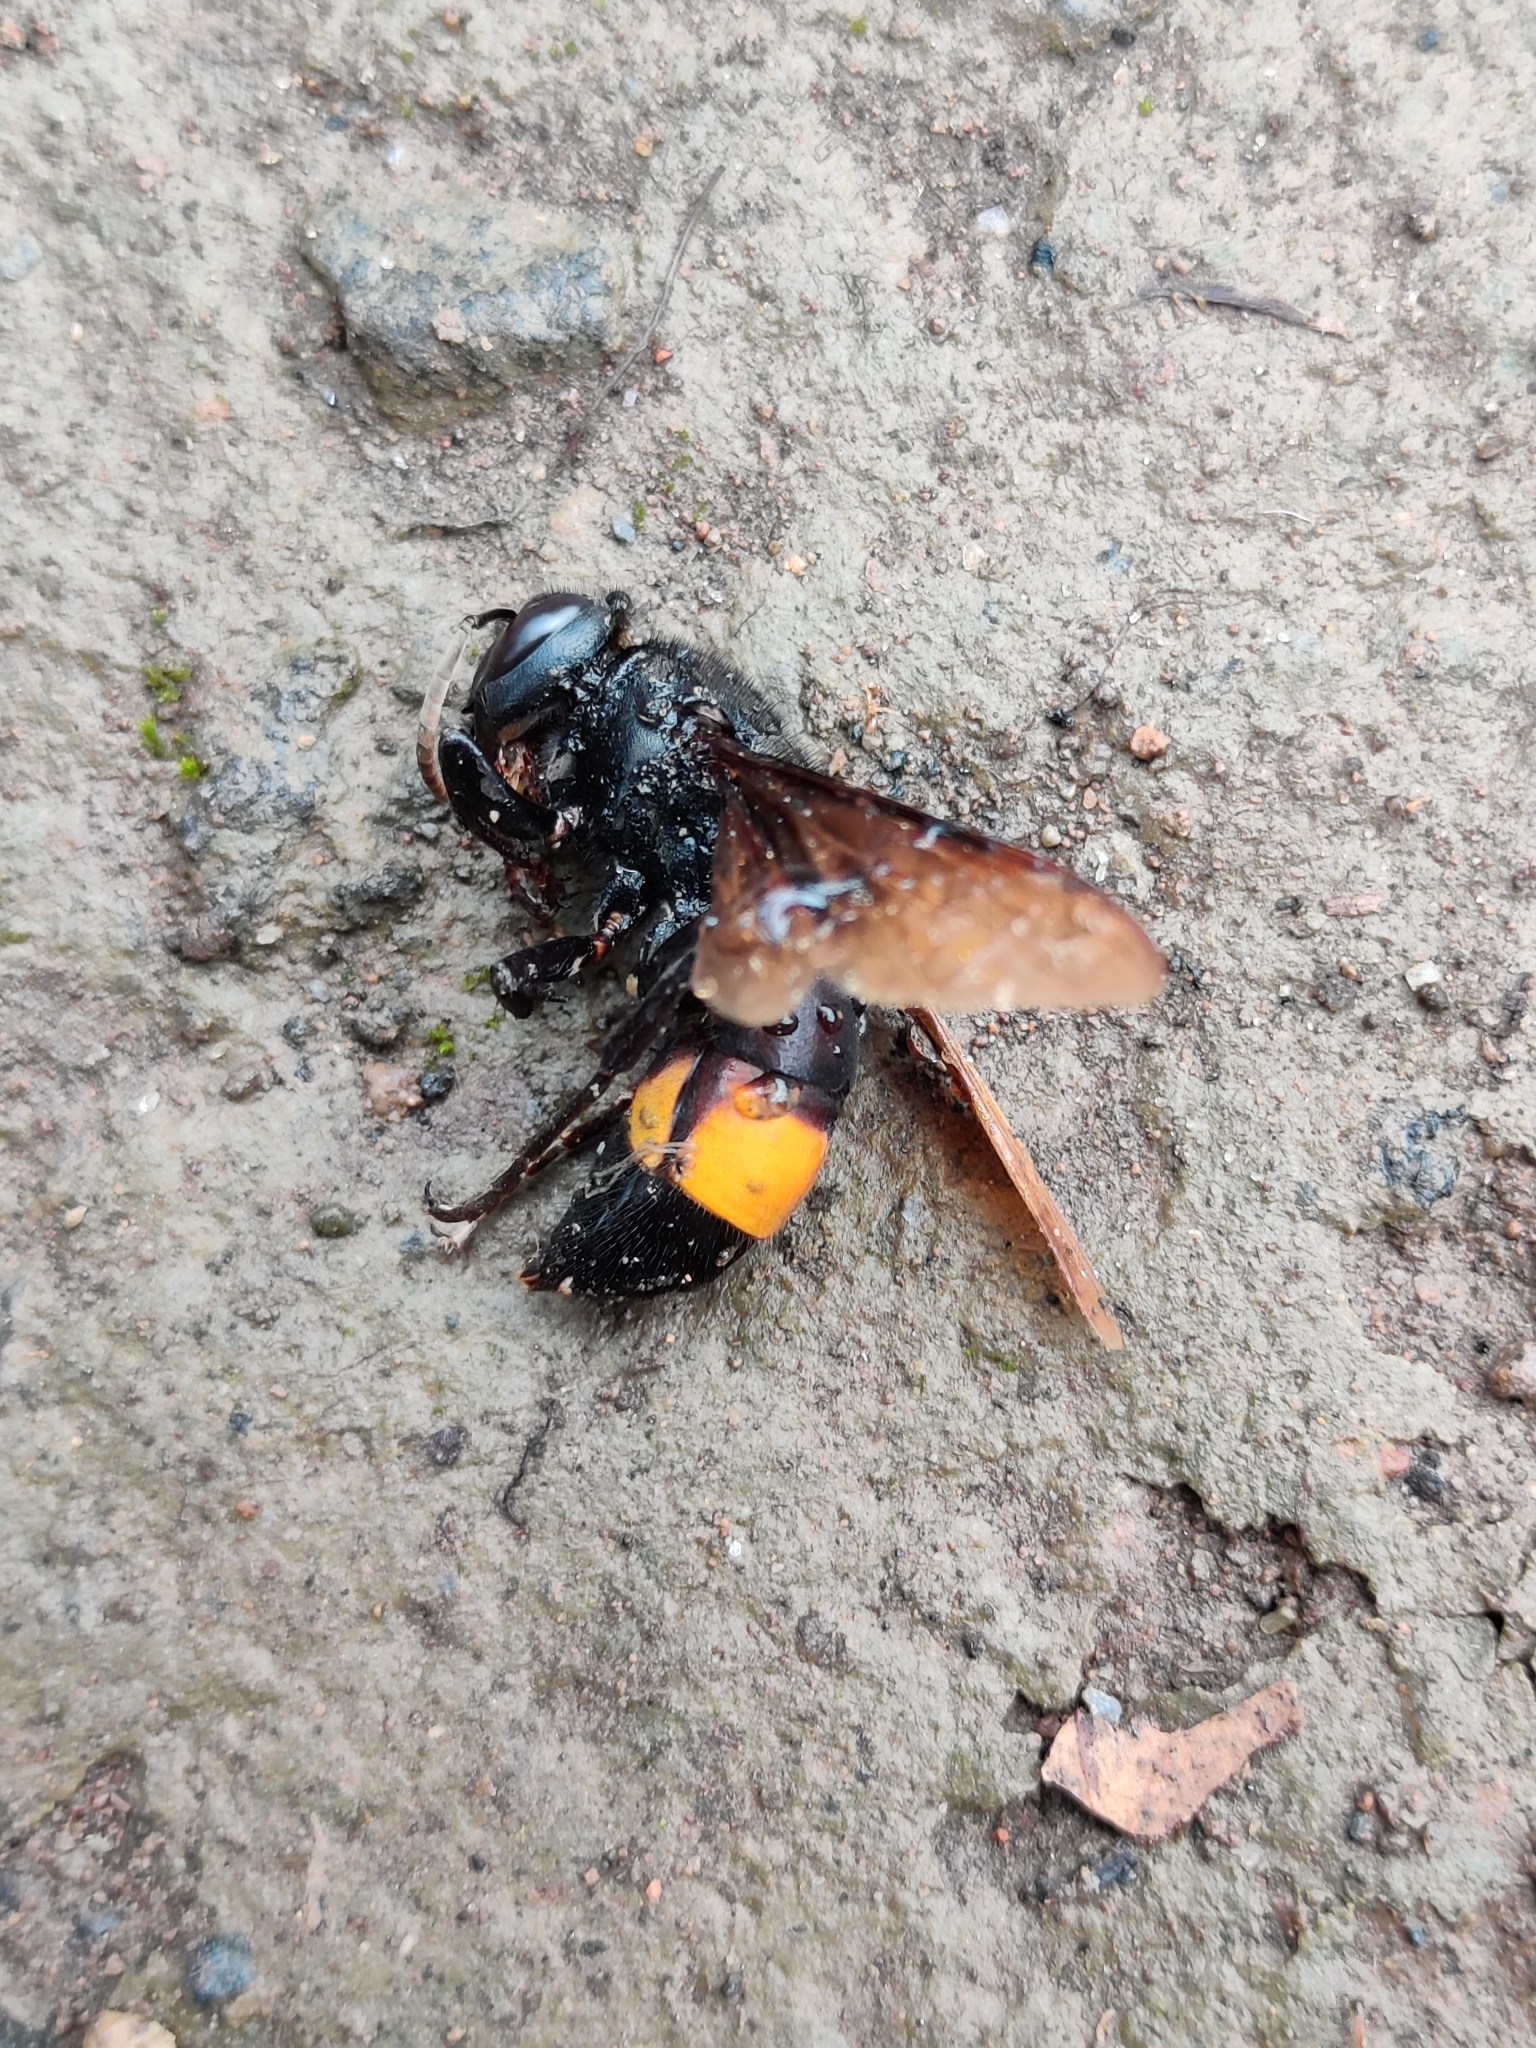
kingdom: Animalia
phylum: Arthropoda
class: Insecta
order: Hymenoptera
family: Vespidae
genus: Vespa
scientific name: Vespa tropica
